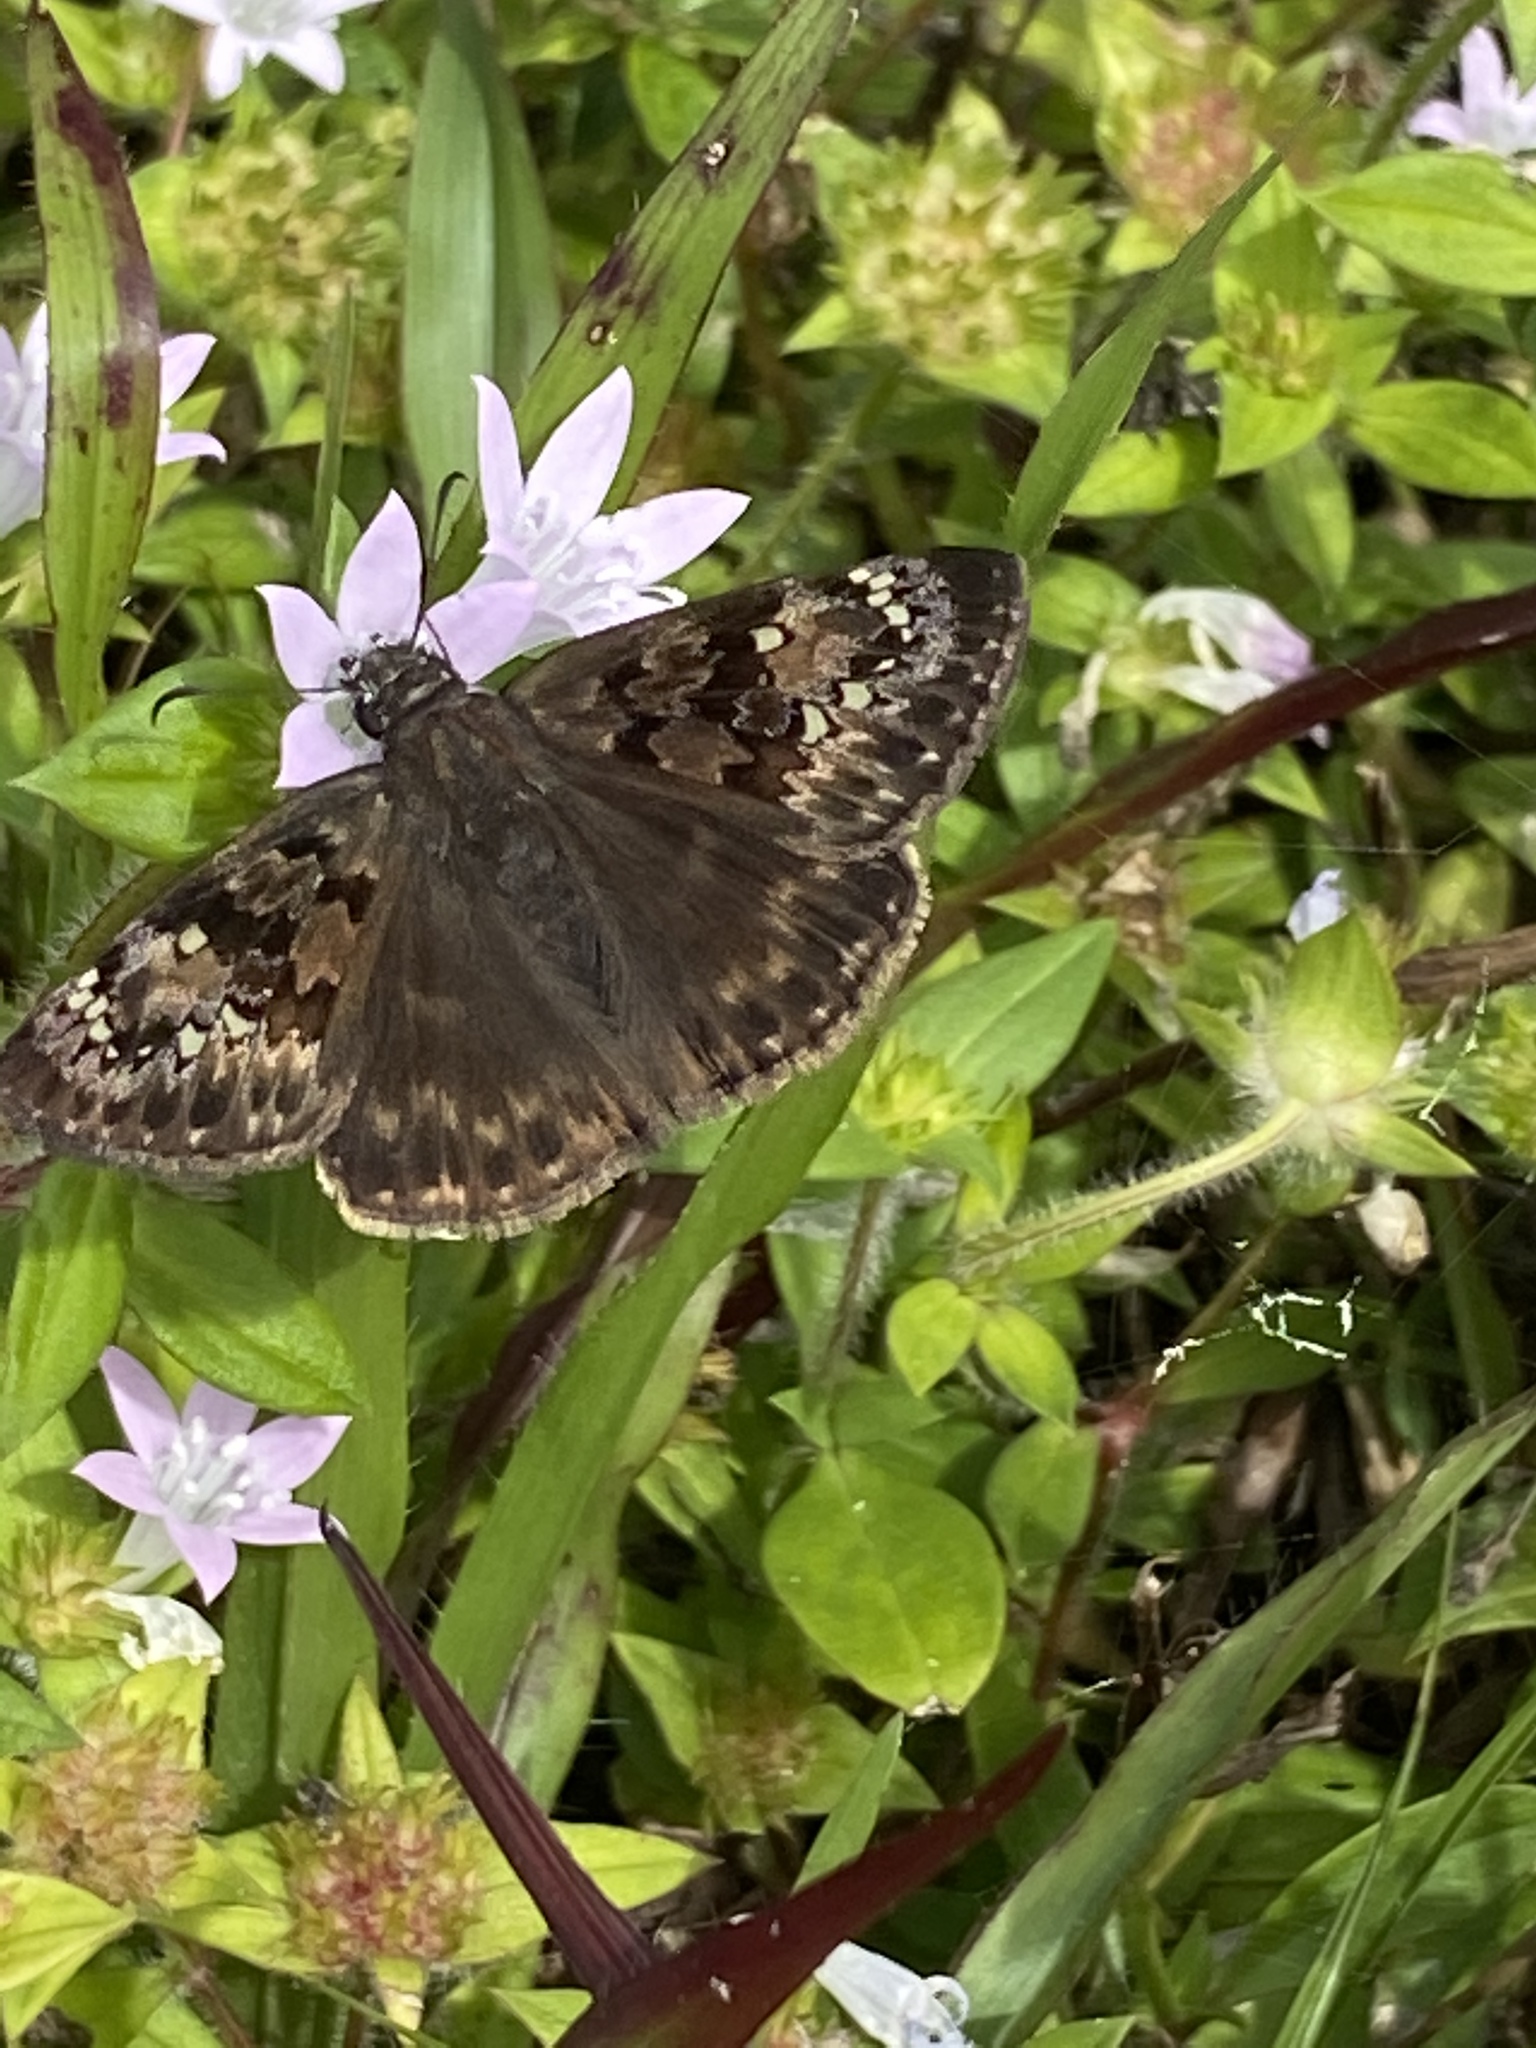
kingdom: Animalia
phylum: Arthropoda
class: Insecta
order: Lepidoptera
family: Hesperiidae
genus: Erynnis
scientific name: Erynnis horatius
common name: Horace's duskywing
